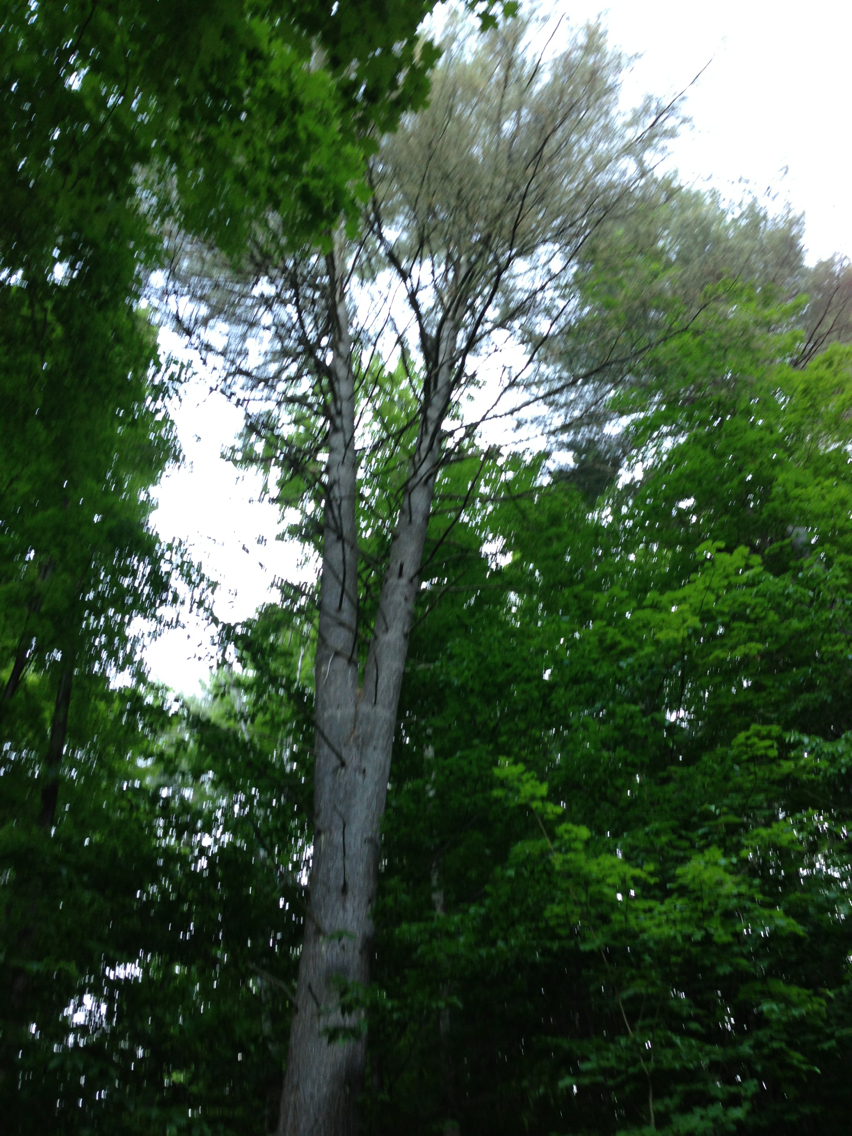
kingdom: Plantae
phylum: Tracheophyta
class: Pinopsida
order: Pinales
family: Pinaceae
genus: Pinus
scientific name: Pinus strobus
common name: Weymouth pine
